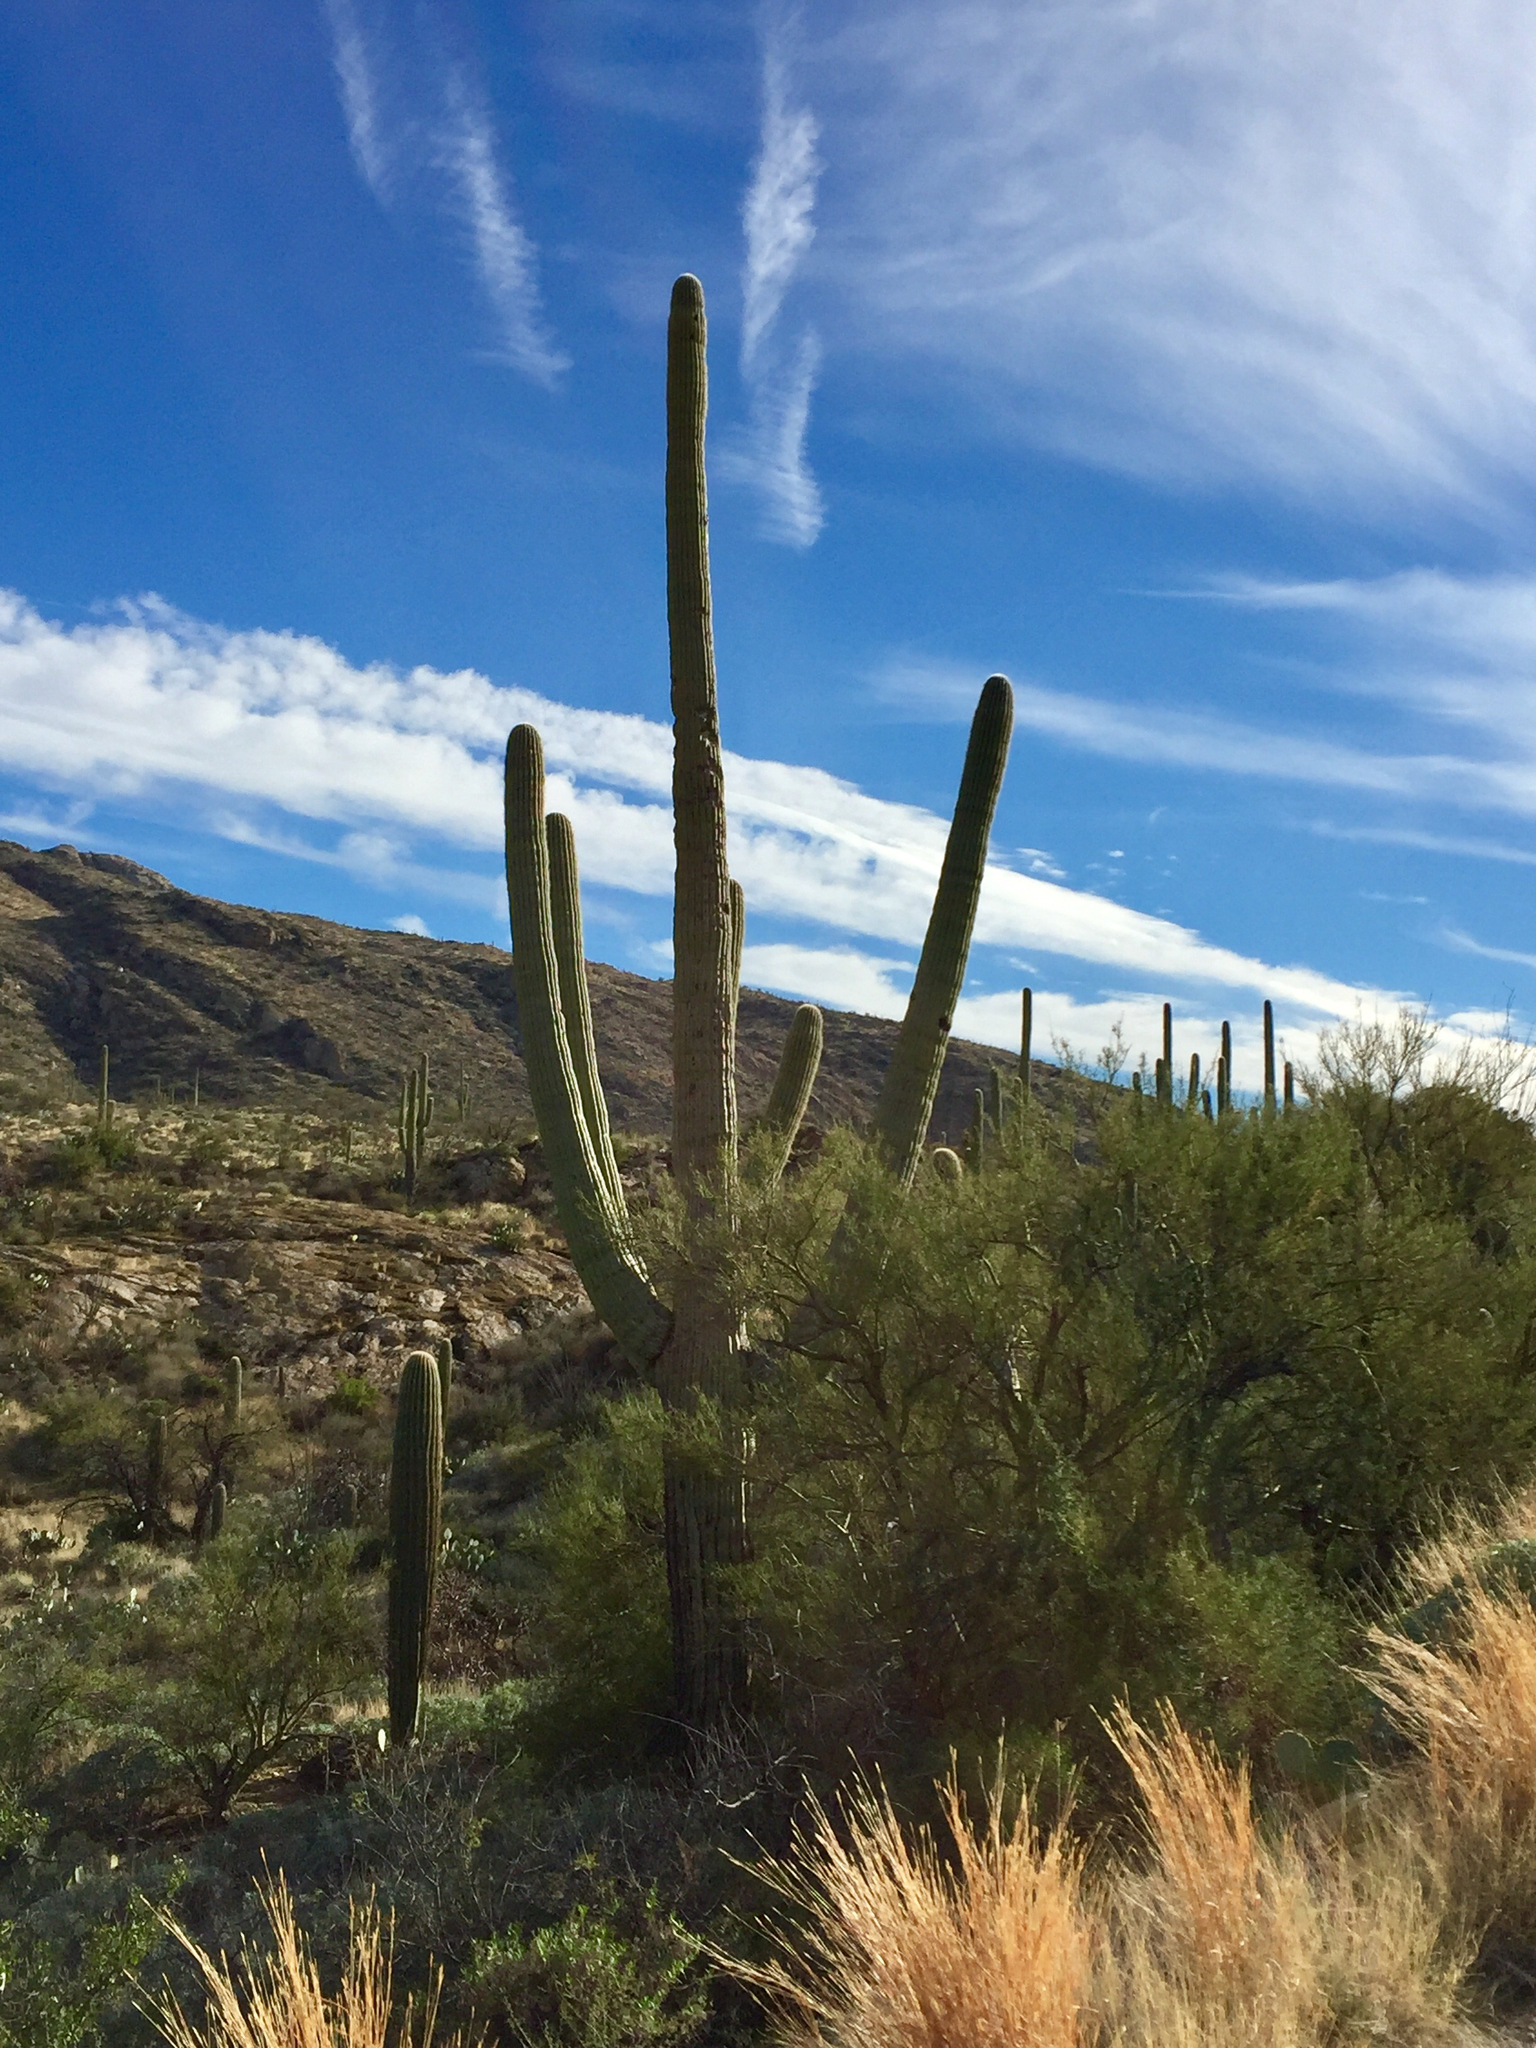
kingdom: Plantae
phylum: Tracheophyta
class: Magnoliopsida
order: Caryophyllales
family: Cactaceae
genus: Carnegiea
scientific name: Carnegiea gigantea
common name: Saguaro
